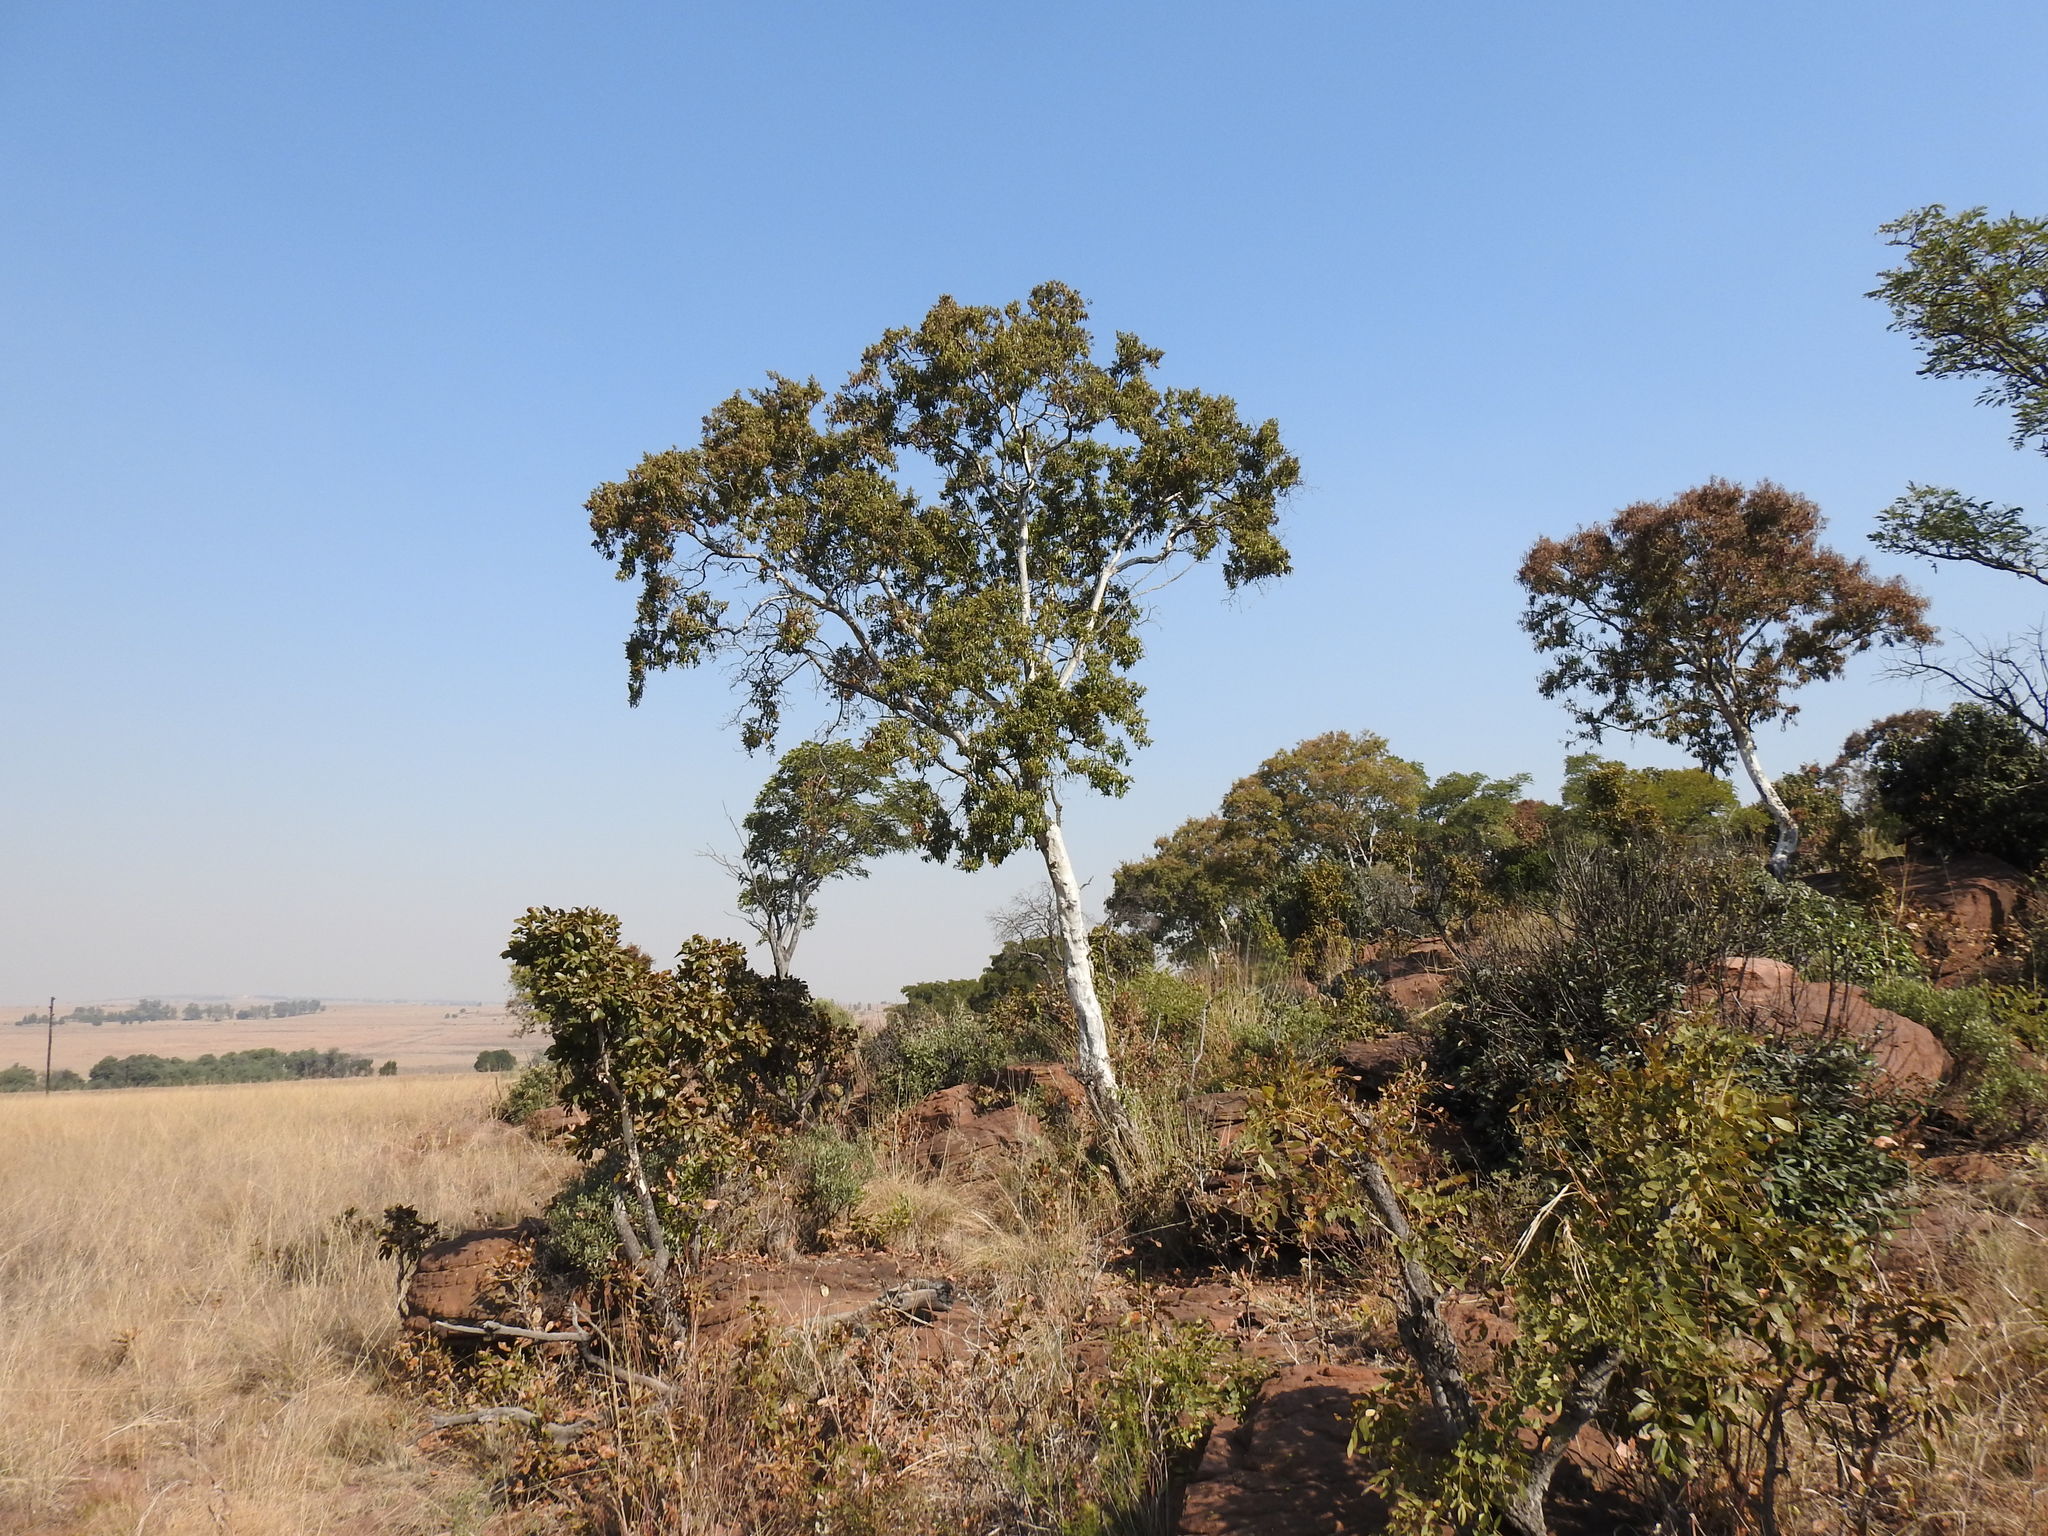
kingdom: Plantae
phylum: Tracheophyta
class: Magnoliopsida
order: Myrtales
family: Myrtaceae
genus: Heteropyxis
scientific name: Heteropyxis natalensis
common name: Lavender tree
